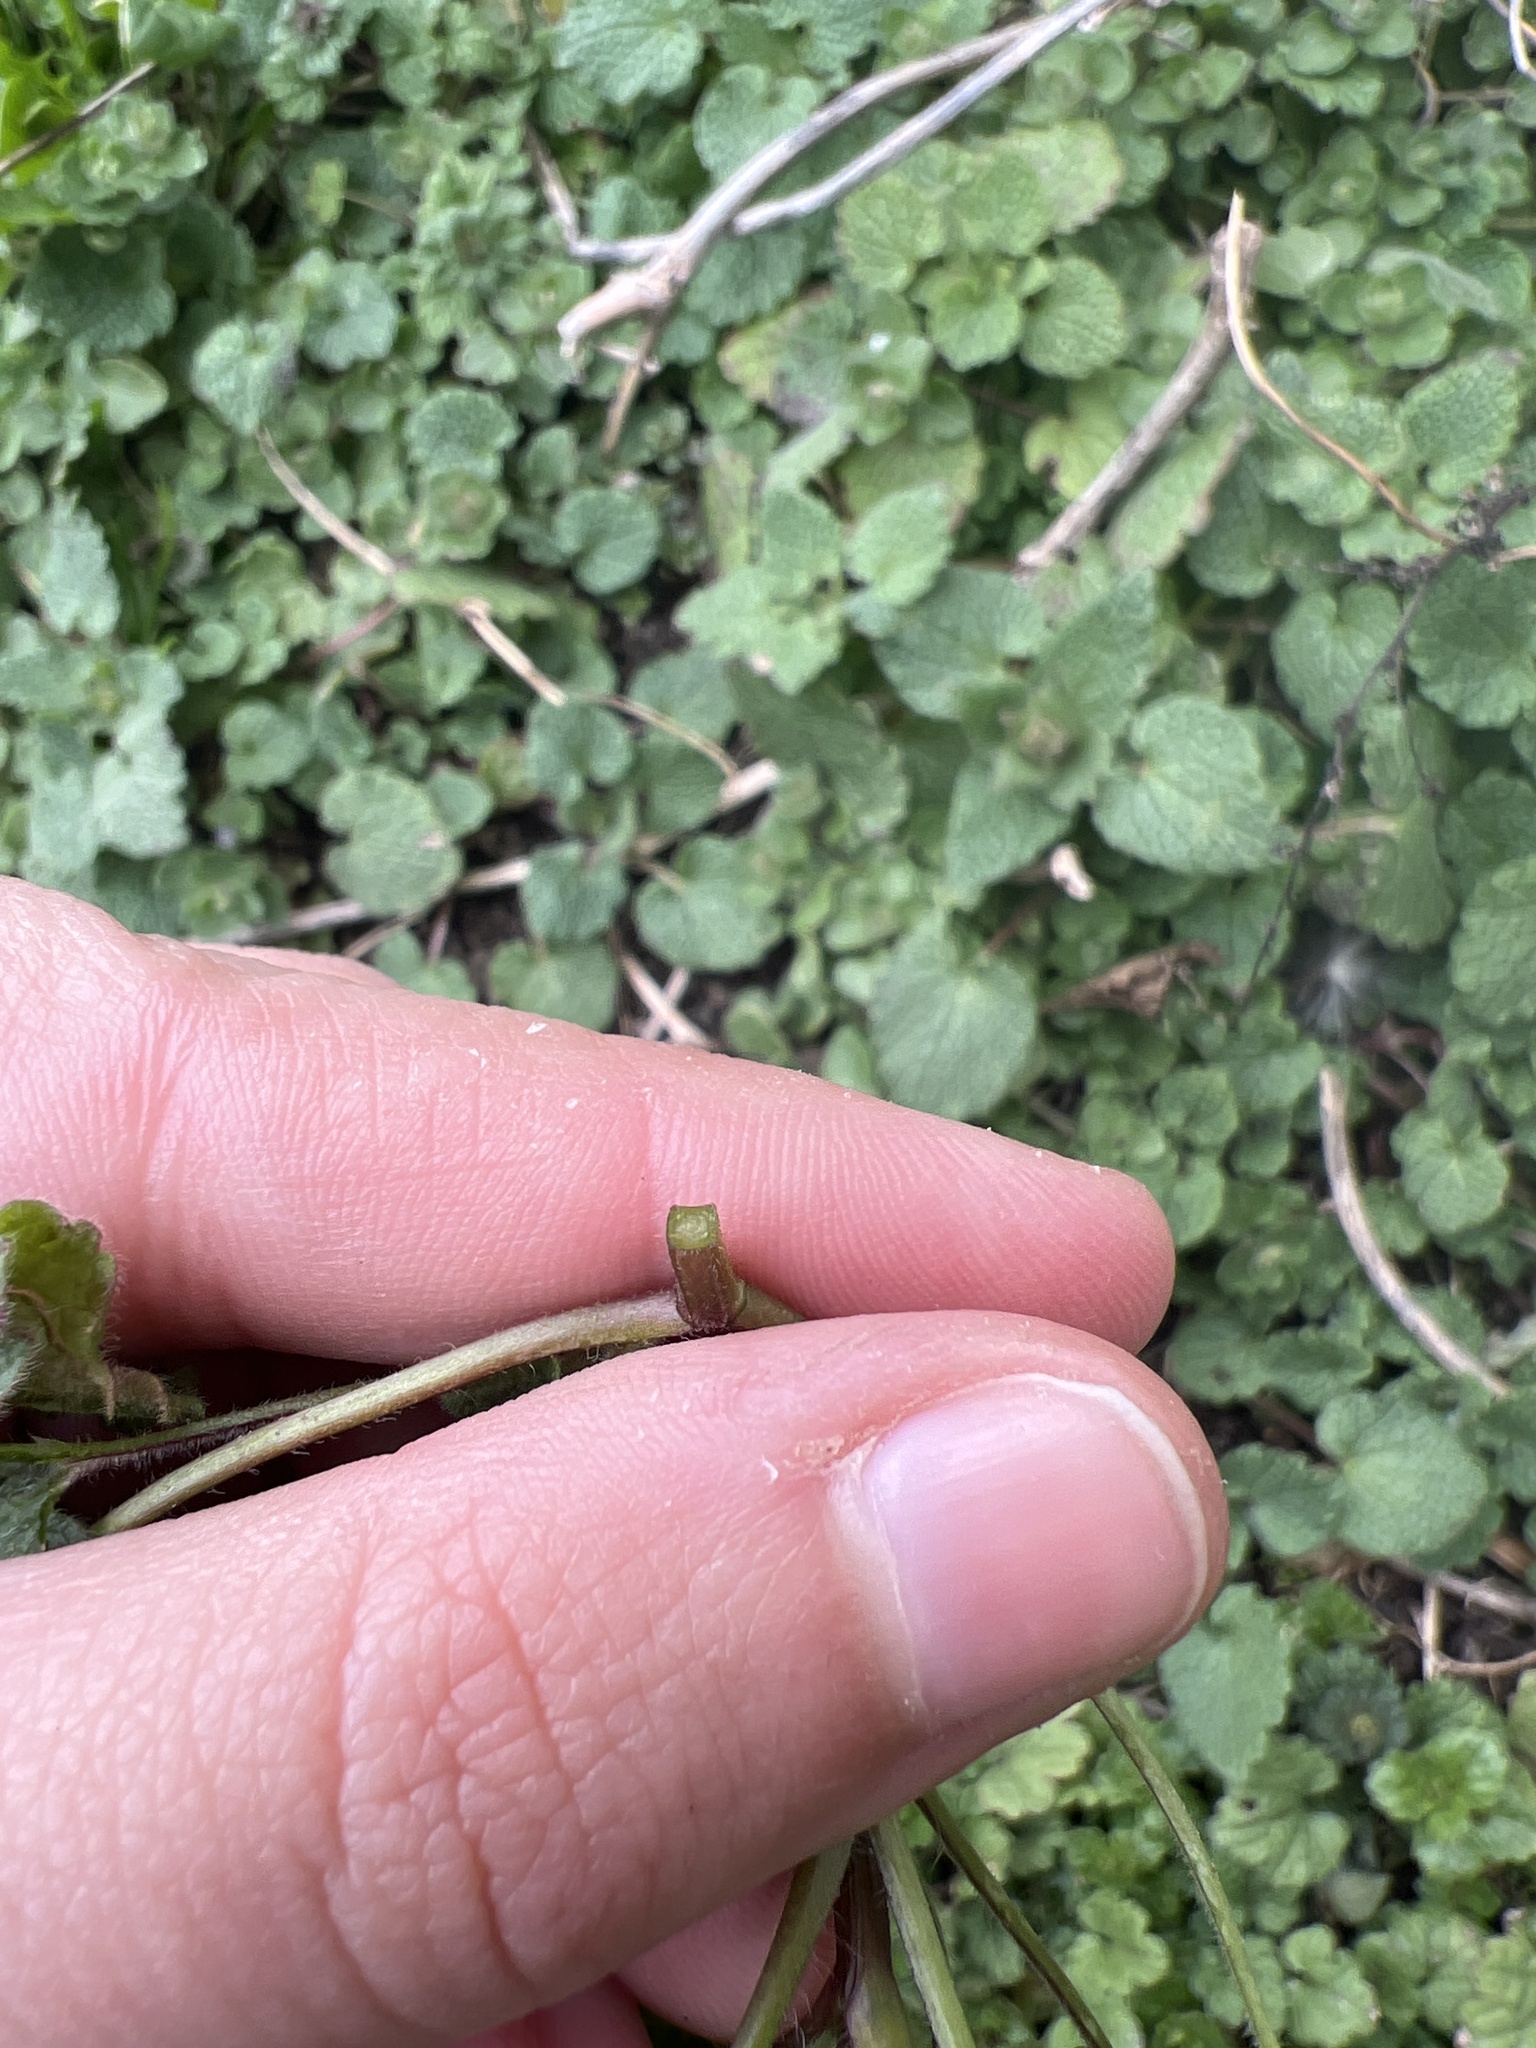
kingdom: Plantae
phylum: Tracheophyta
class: Magnoliopsida
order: Lamiales
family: Lamiaceae
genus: Lamium
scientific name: Lamium purpureum
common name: Red dead-nettle
